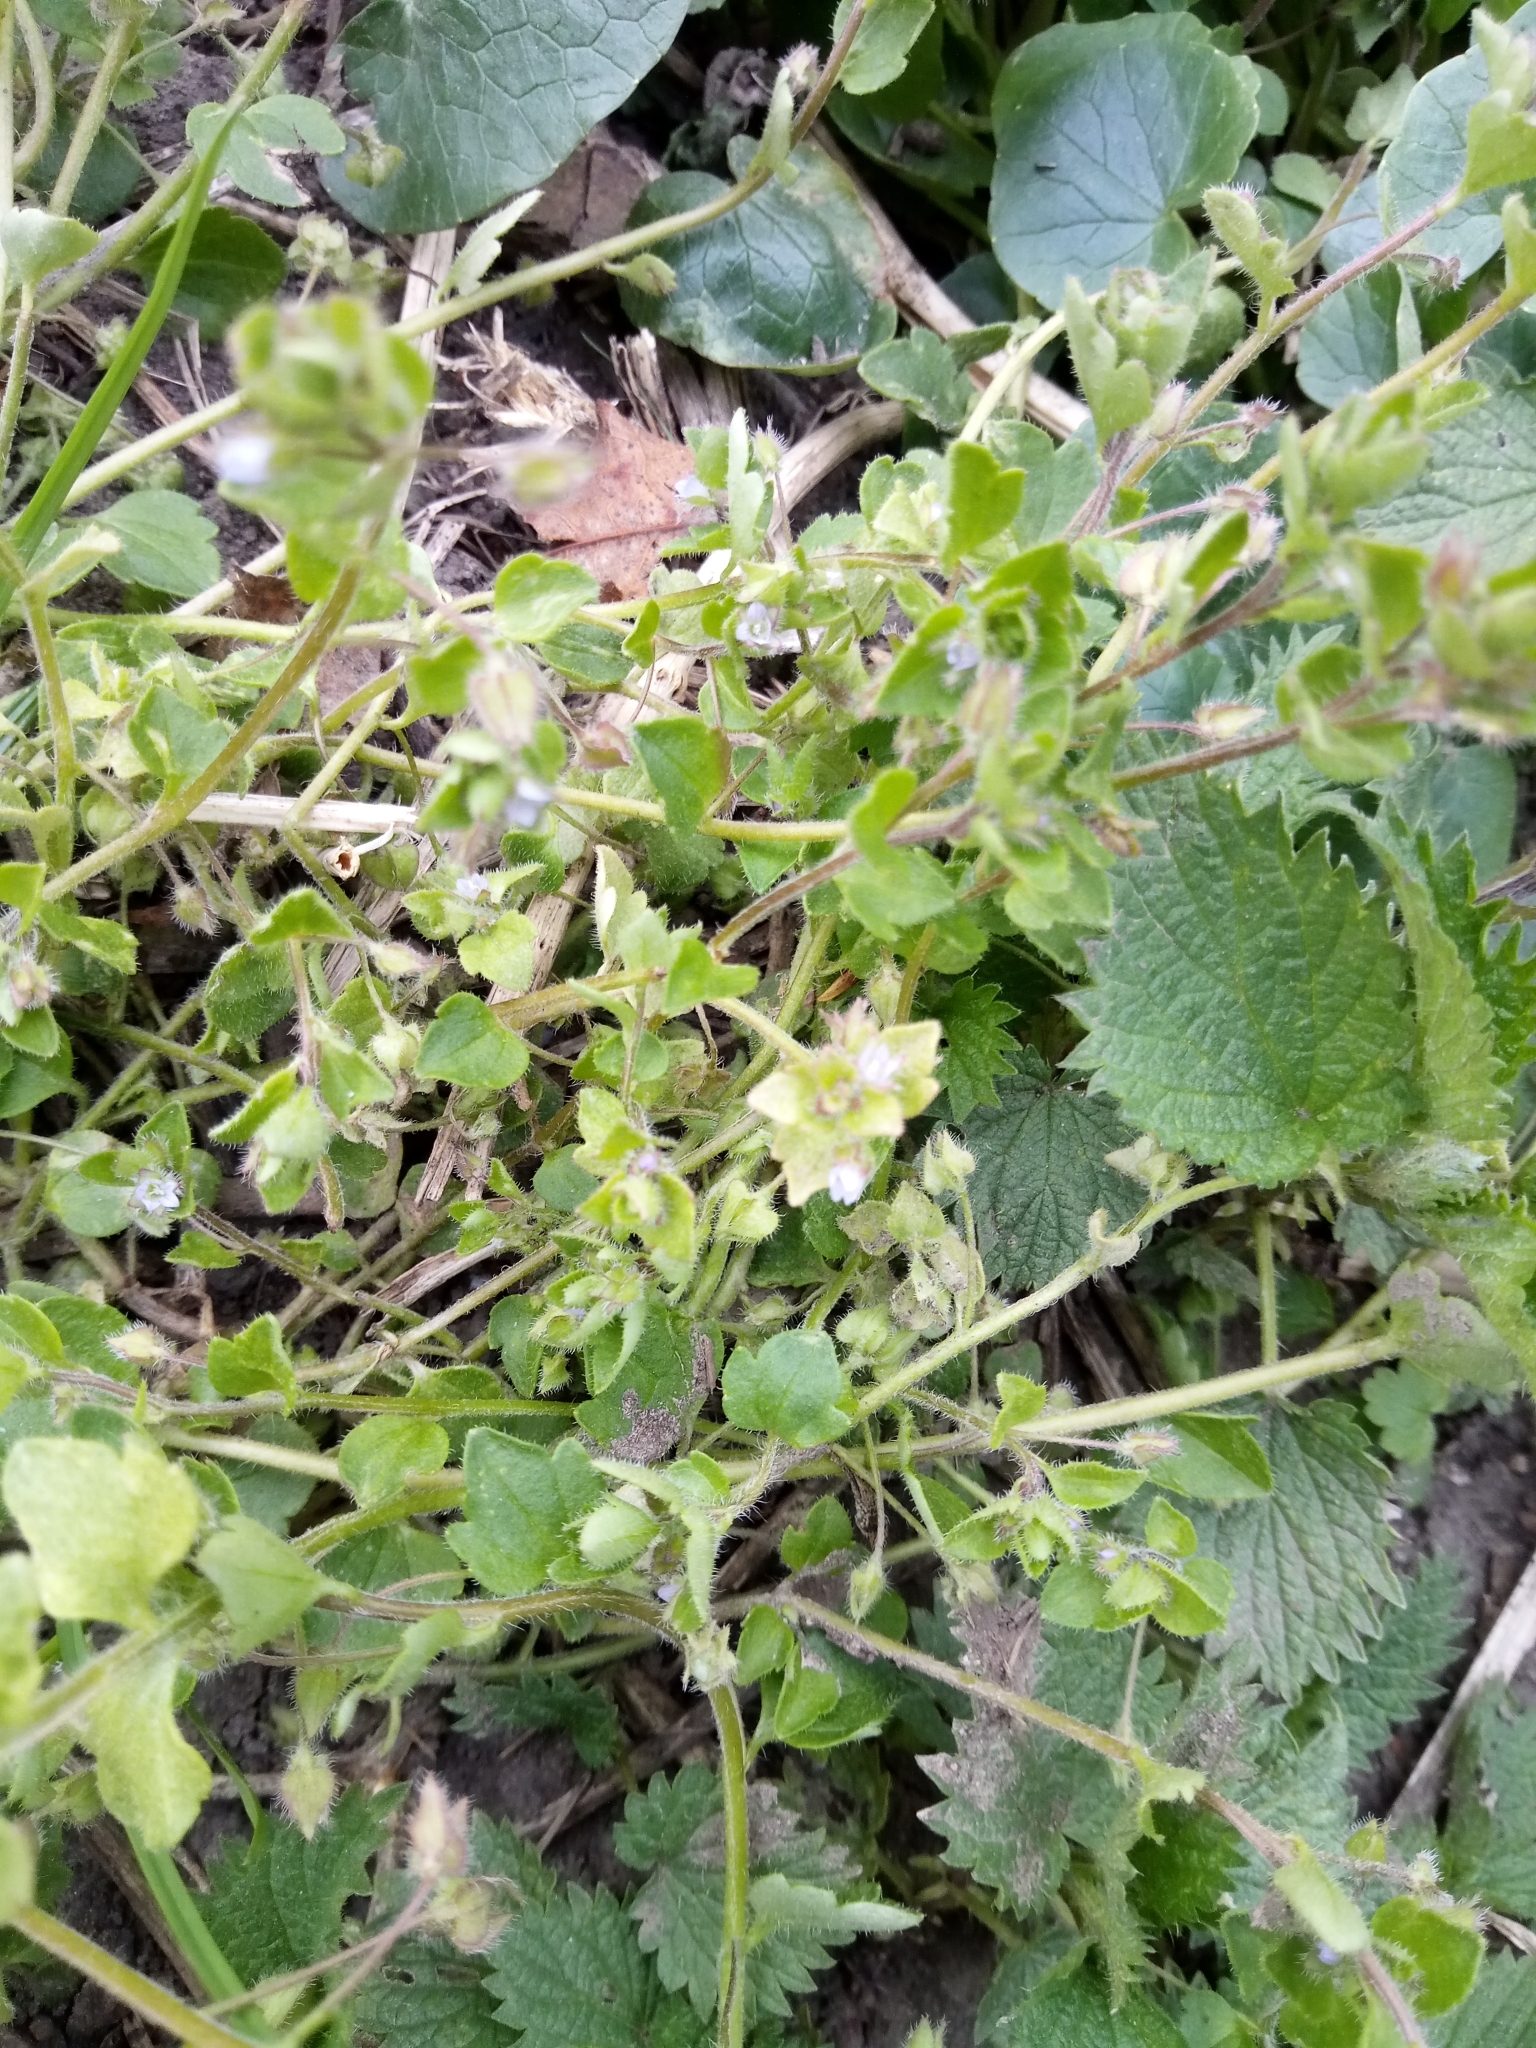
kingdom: Plantae
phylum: Tracheophyta
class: Magnoliopsida
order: Lamiales
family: Plantaginaceae
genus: Veronica
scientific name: Veronica sublobata
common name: False ivy-leaved speedwell
